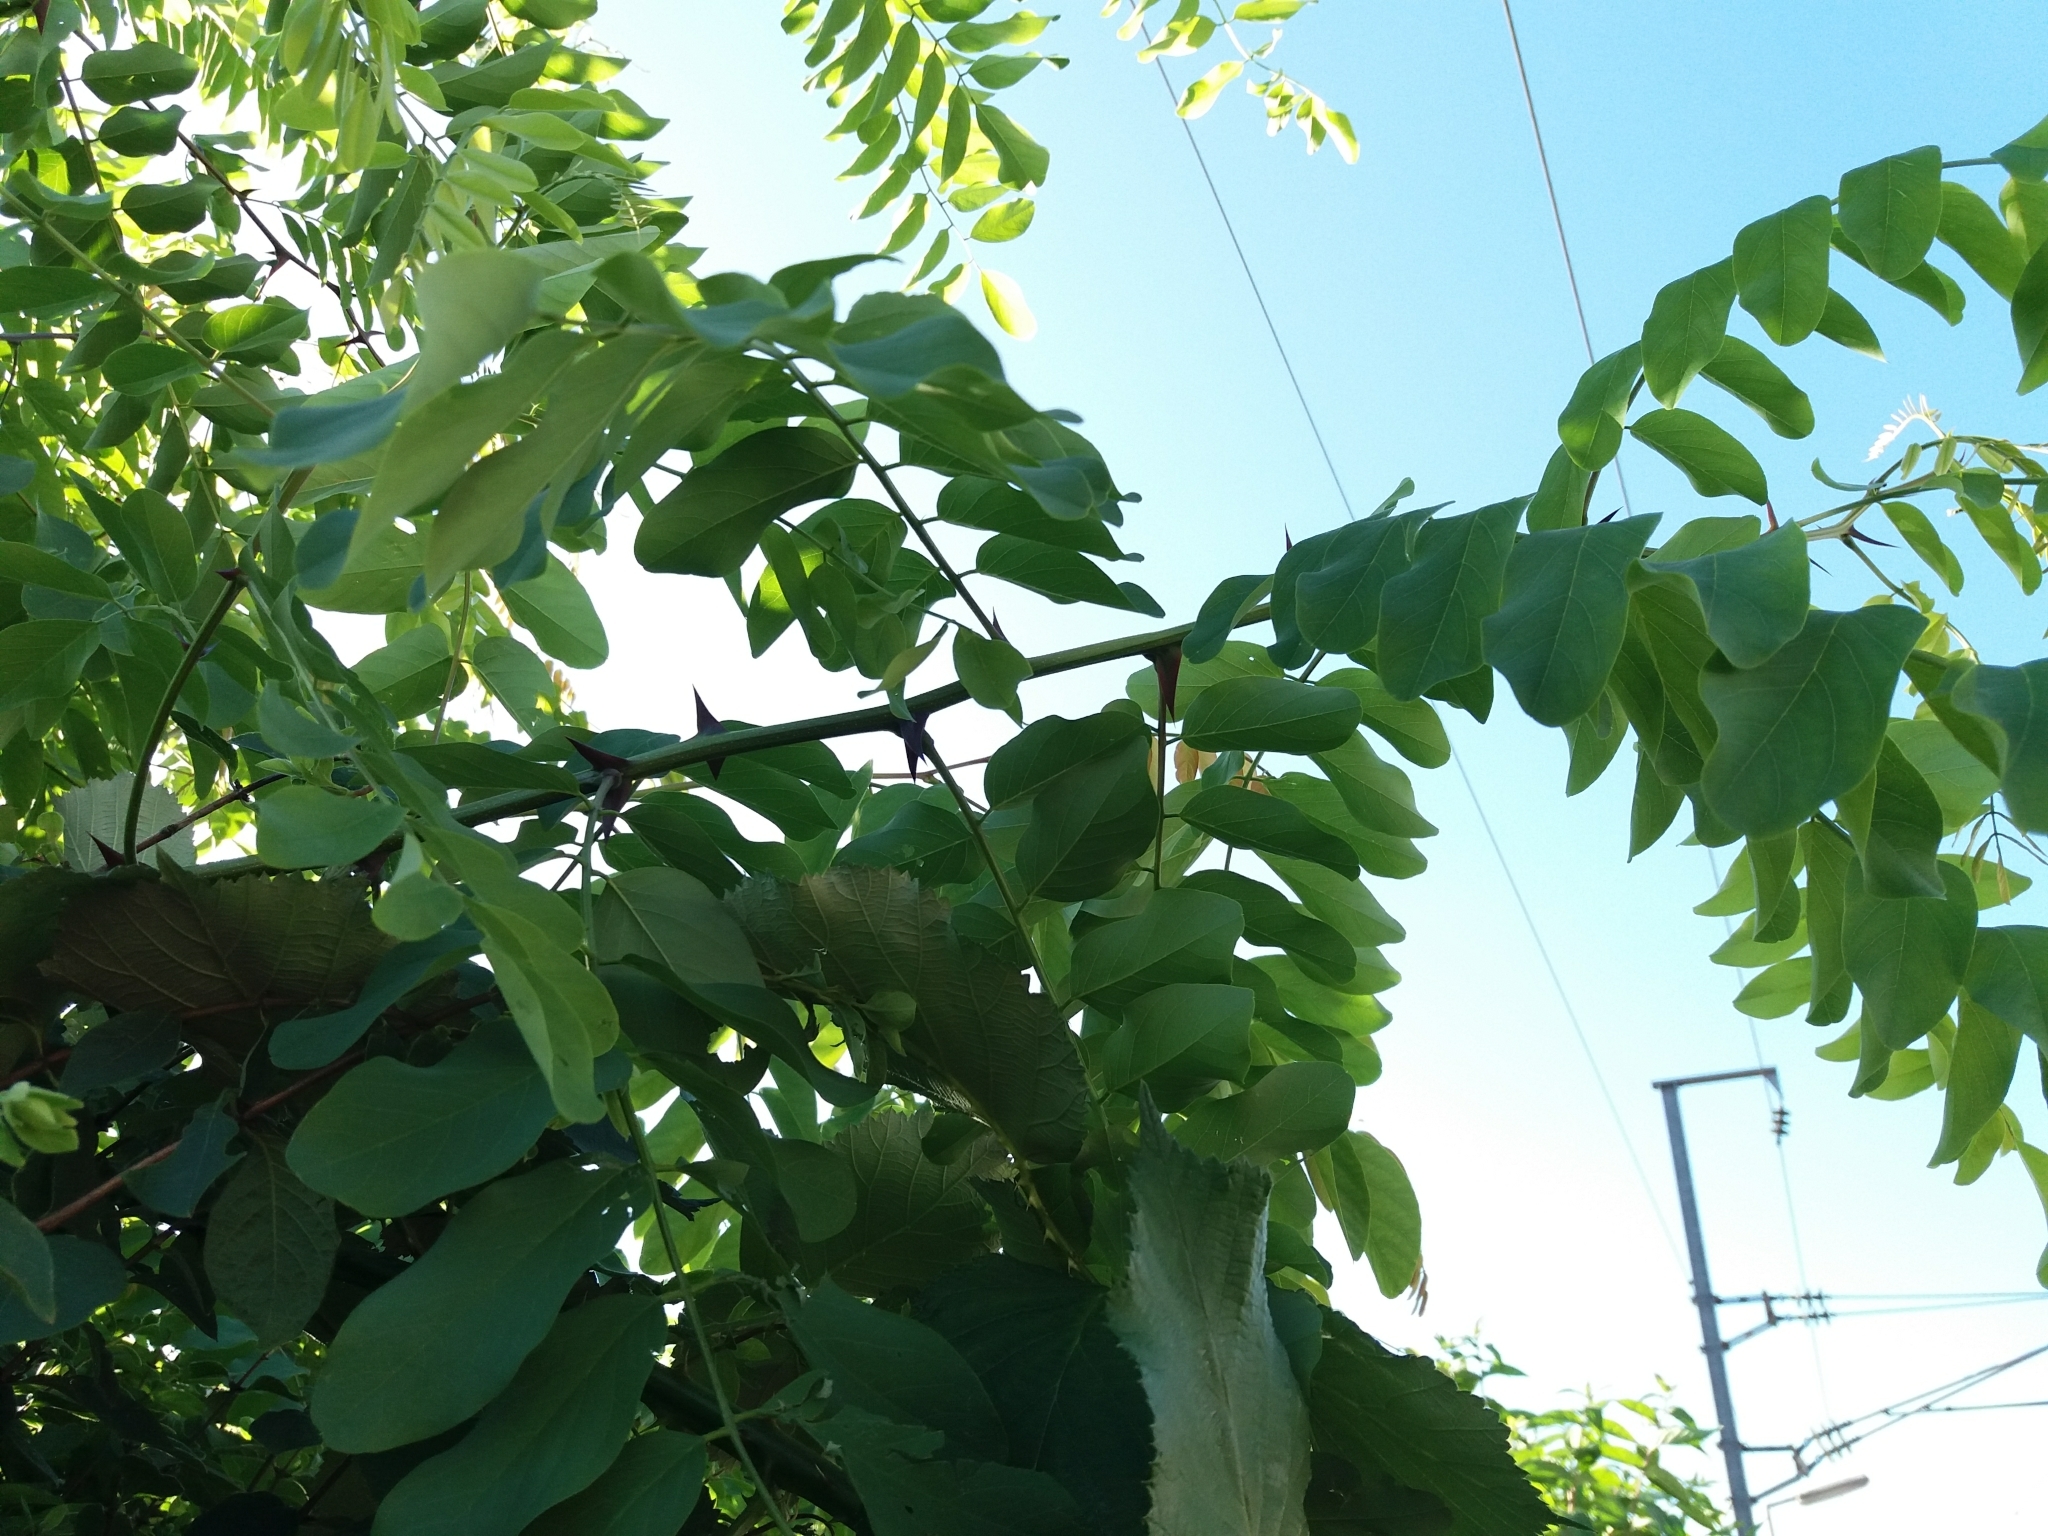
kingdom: Plantae
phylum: Tracheophyta
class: Magnoliopsida
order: Fabales
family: Fabaceae
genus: Robinia
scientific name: Robinia pseudoacacia
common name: Black locust
